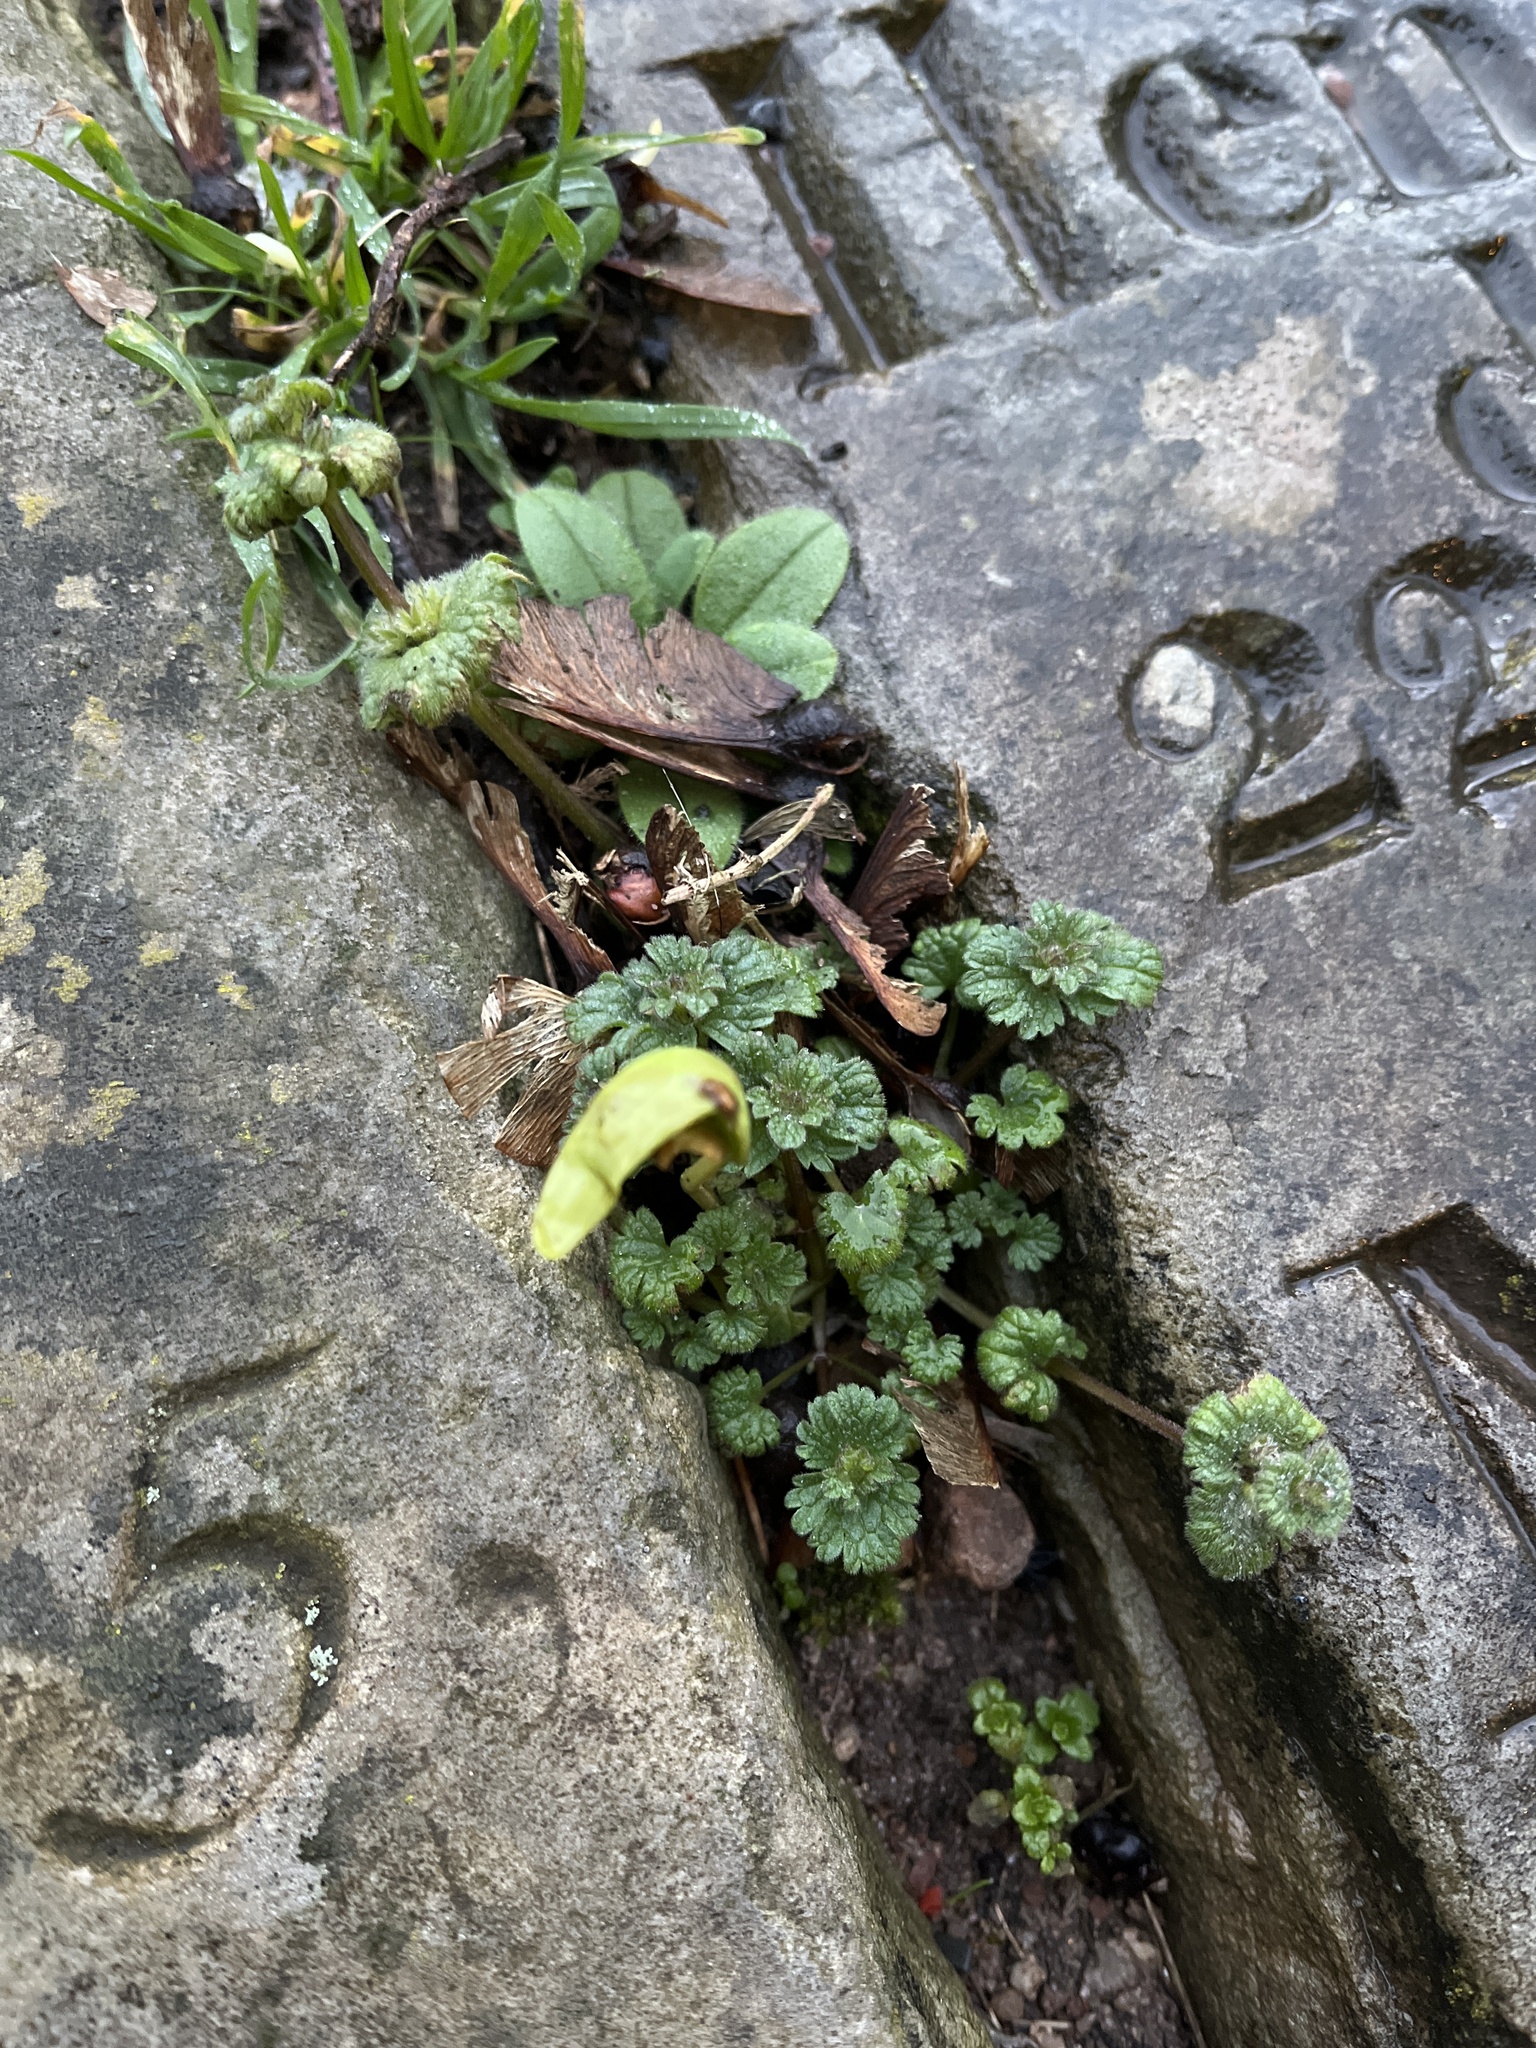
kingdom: Plantae
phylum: Tracheophyta
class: Magnoliopsida
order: Lamiales
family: Lamiaceae
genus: Lamium
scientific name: Lamium amplexicaule
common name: Henbit dead-nettle
